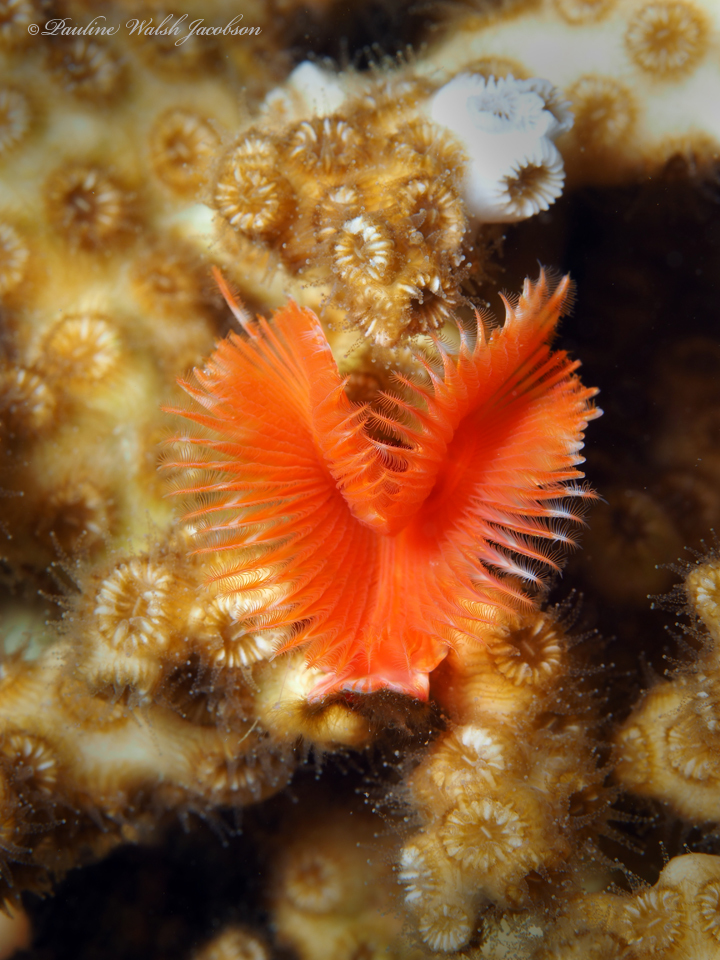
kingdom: Animalia
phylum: Annelida
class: Polychaeta
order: Sabellida
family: Serpulidae
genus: Pomatostegus
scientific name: Pomatostegus stellatus
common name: Star tubeworm
